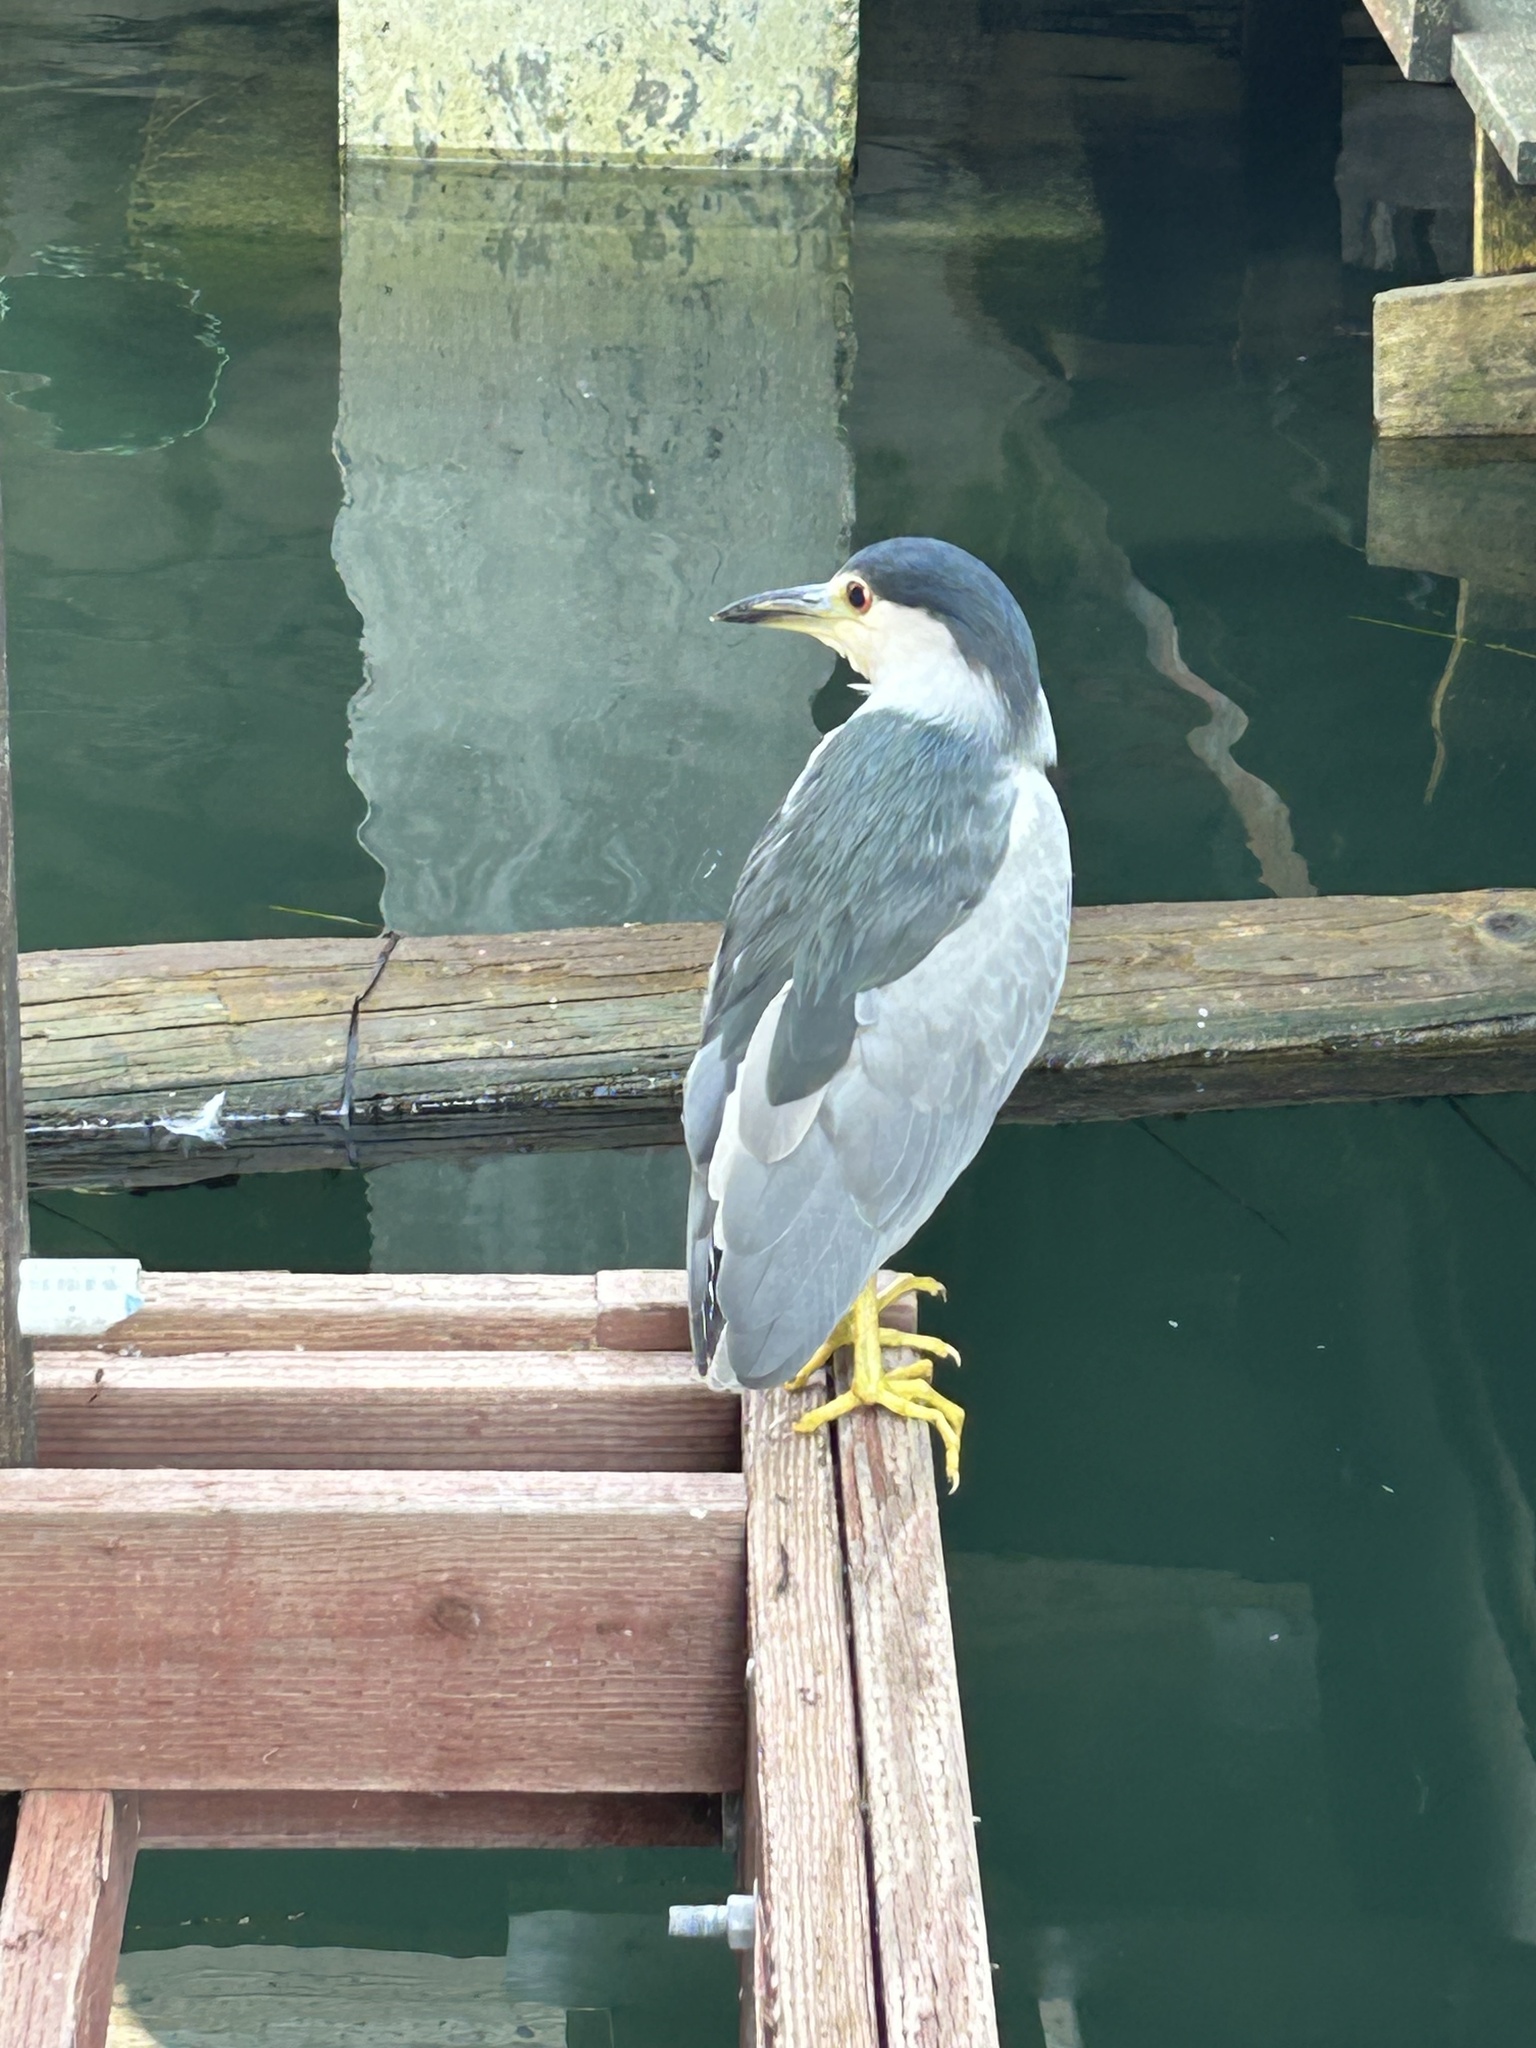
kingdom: Animalia
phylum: Chordata
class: Aves
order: Pelecaniformes
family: Ardeidae
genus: Nycticorax
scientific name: Nycticorax nycticorax
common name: Black-crowned night heron
